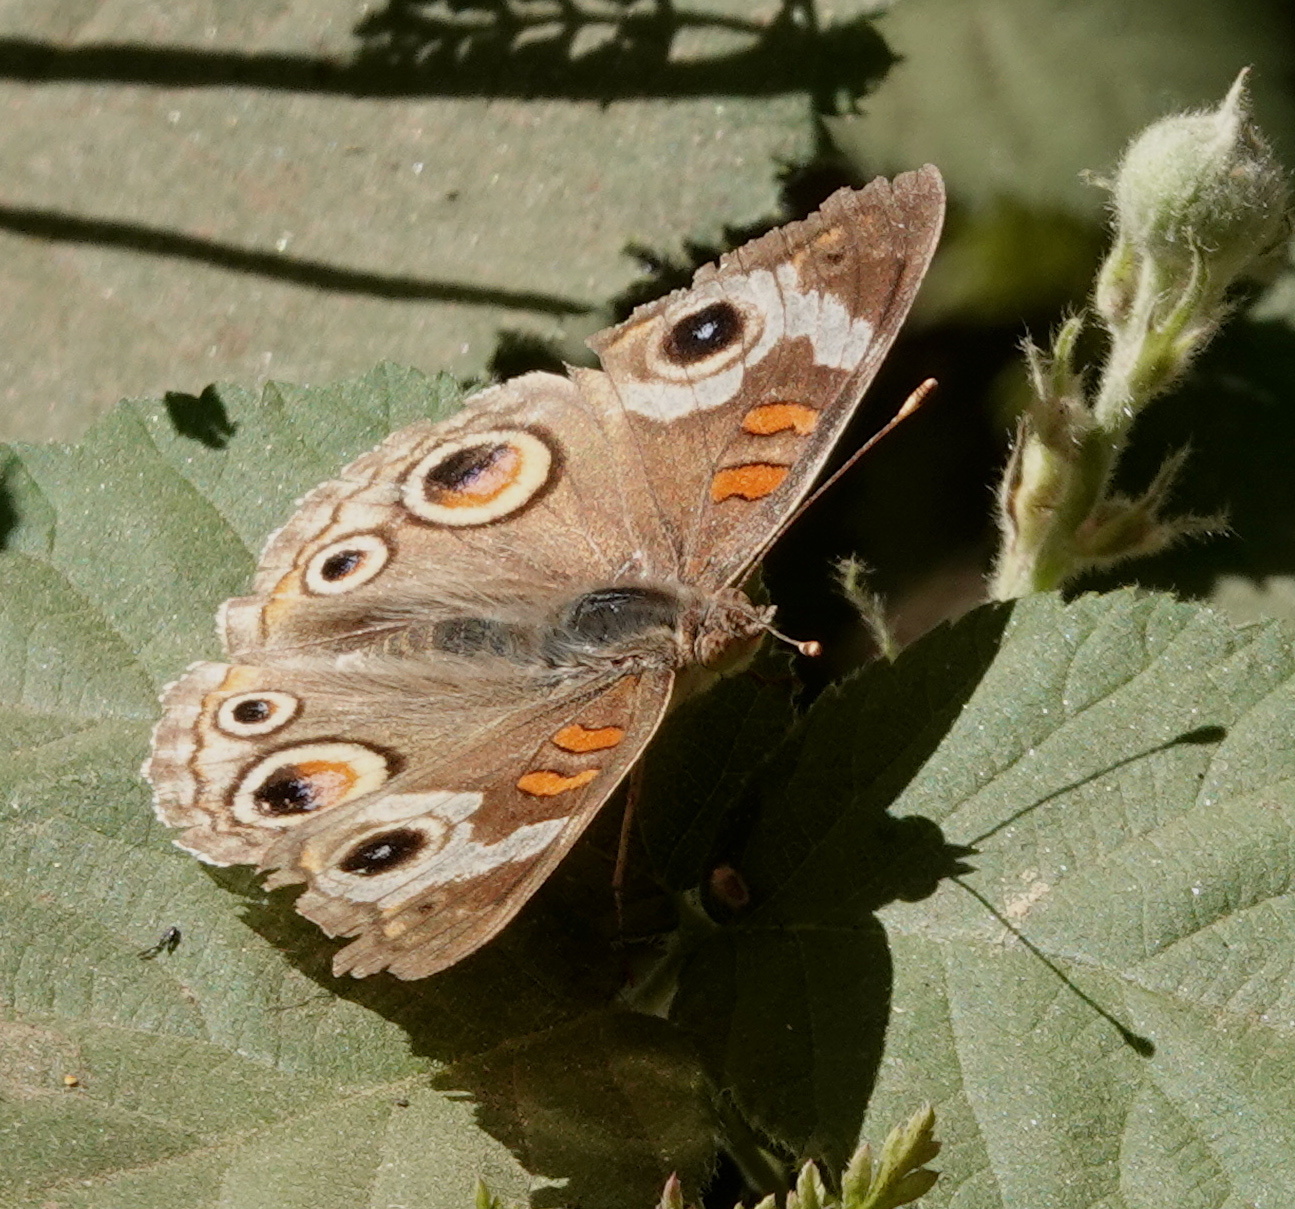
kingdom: Animalia
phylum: Arthropoda
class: Insecta
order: Lepidoptera
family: Nymphalidae
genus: Junonia
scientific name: Junonia grisea
